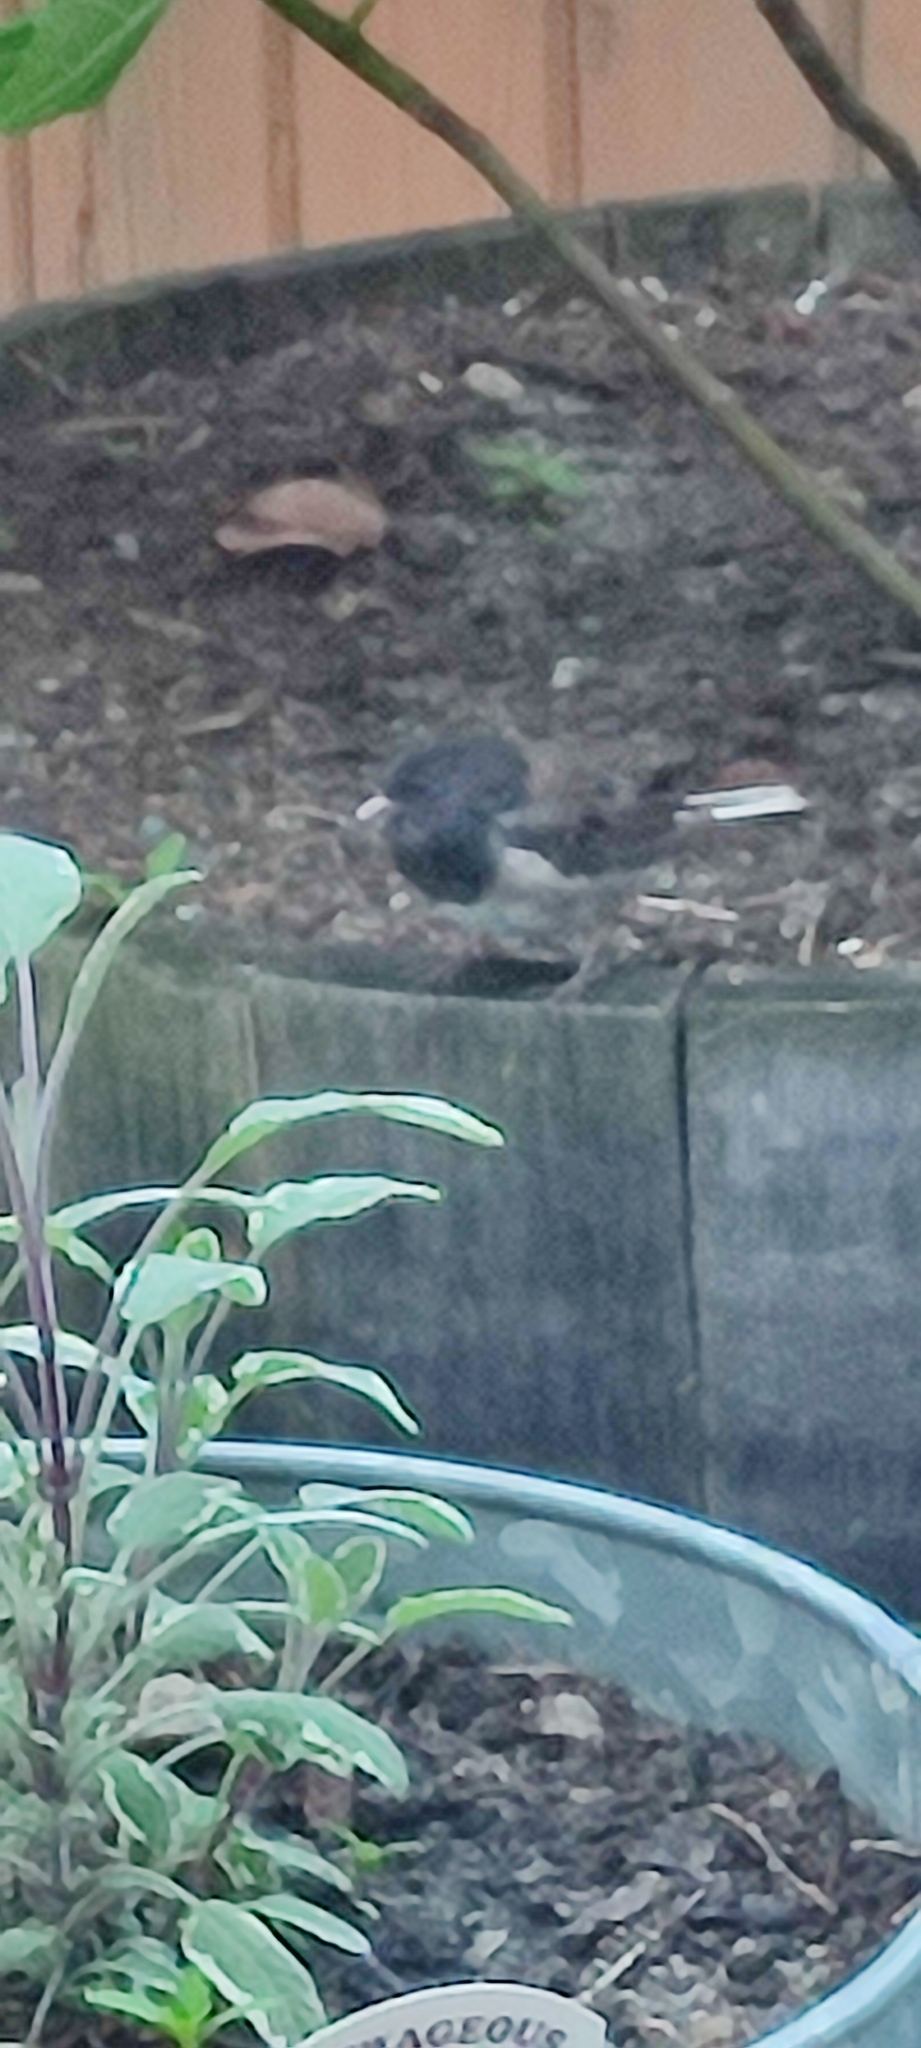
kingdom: Animalia
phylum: Chordata
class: Aves
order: Passeriformes
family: Passerellidae
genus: Junco
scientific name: Junco hyemalis
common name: Dark-eyed junco
